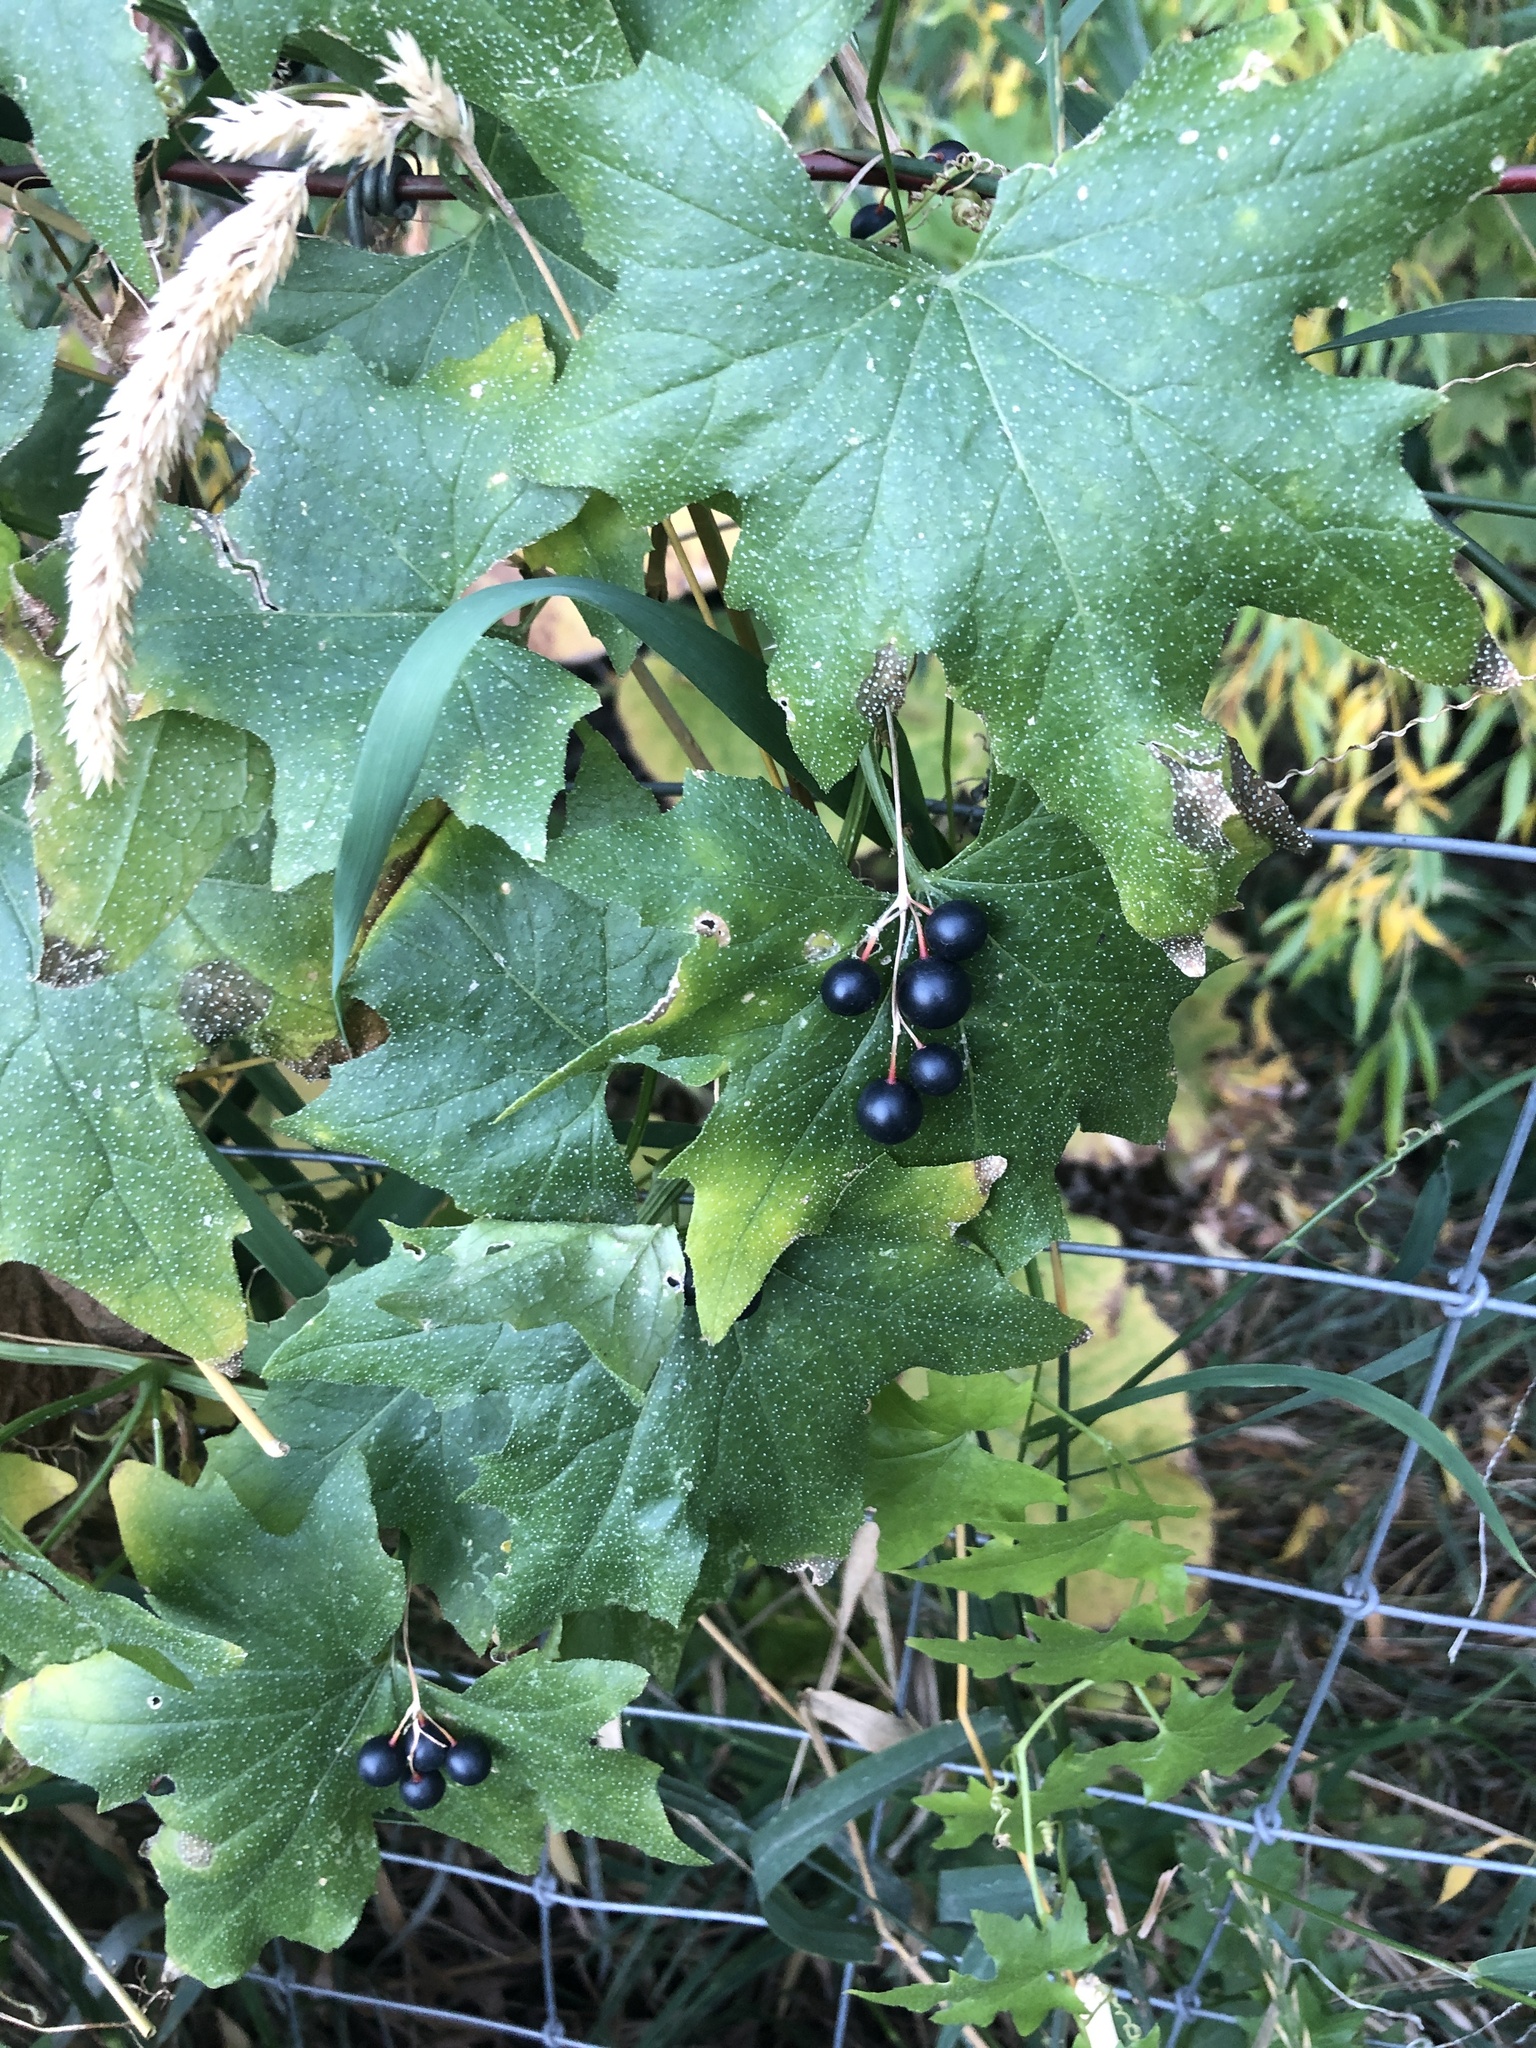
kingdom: Plantae
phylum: Tracheophyta
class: Magnoliopsida
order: Cucurbitales
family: Cucurbitaceae
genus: Bryonia
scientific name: Bryonia alba
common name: White bryony
